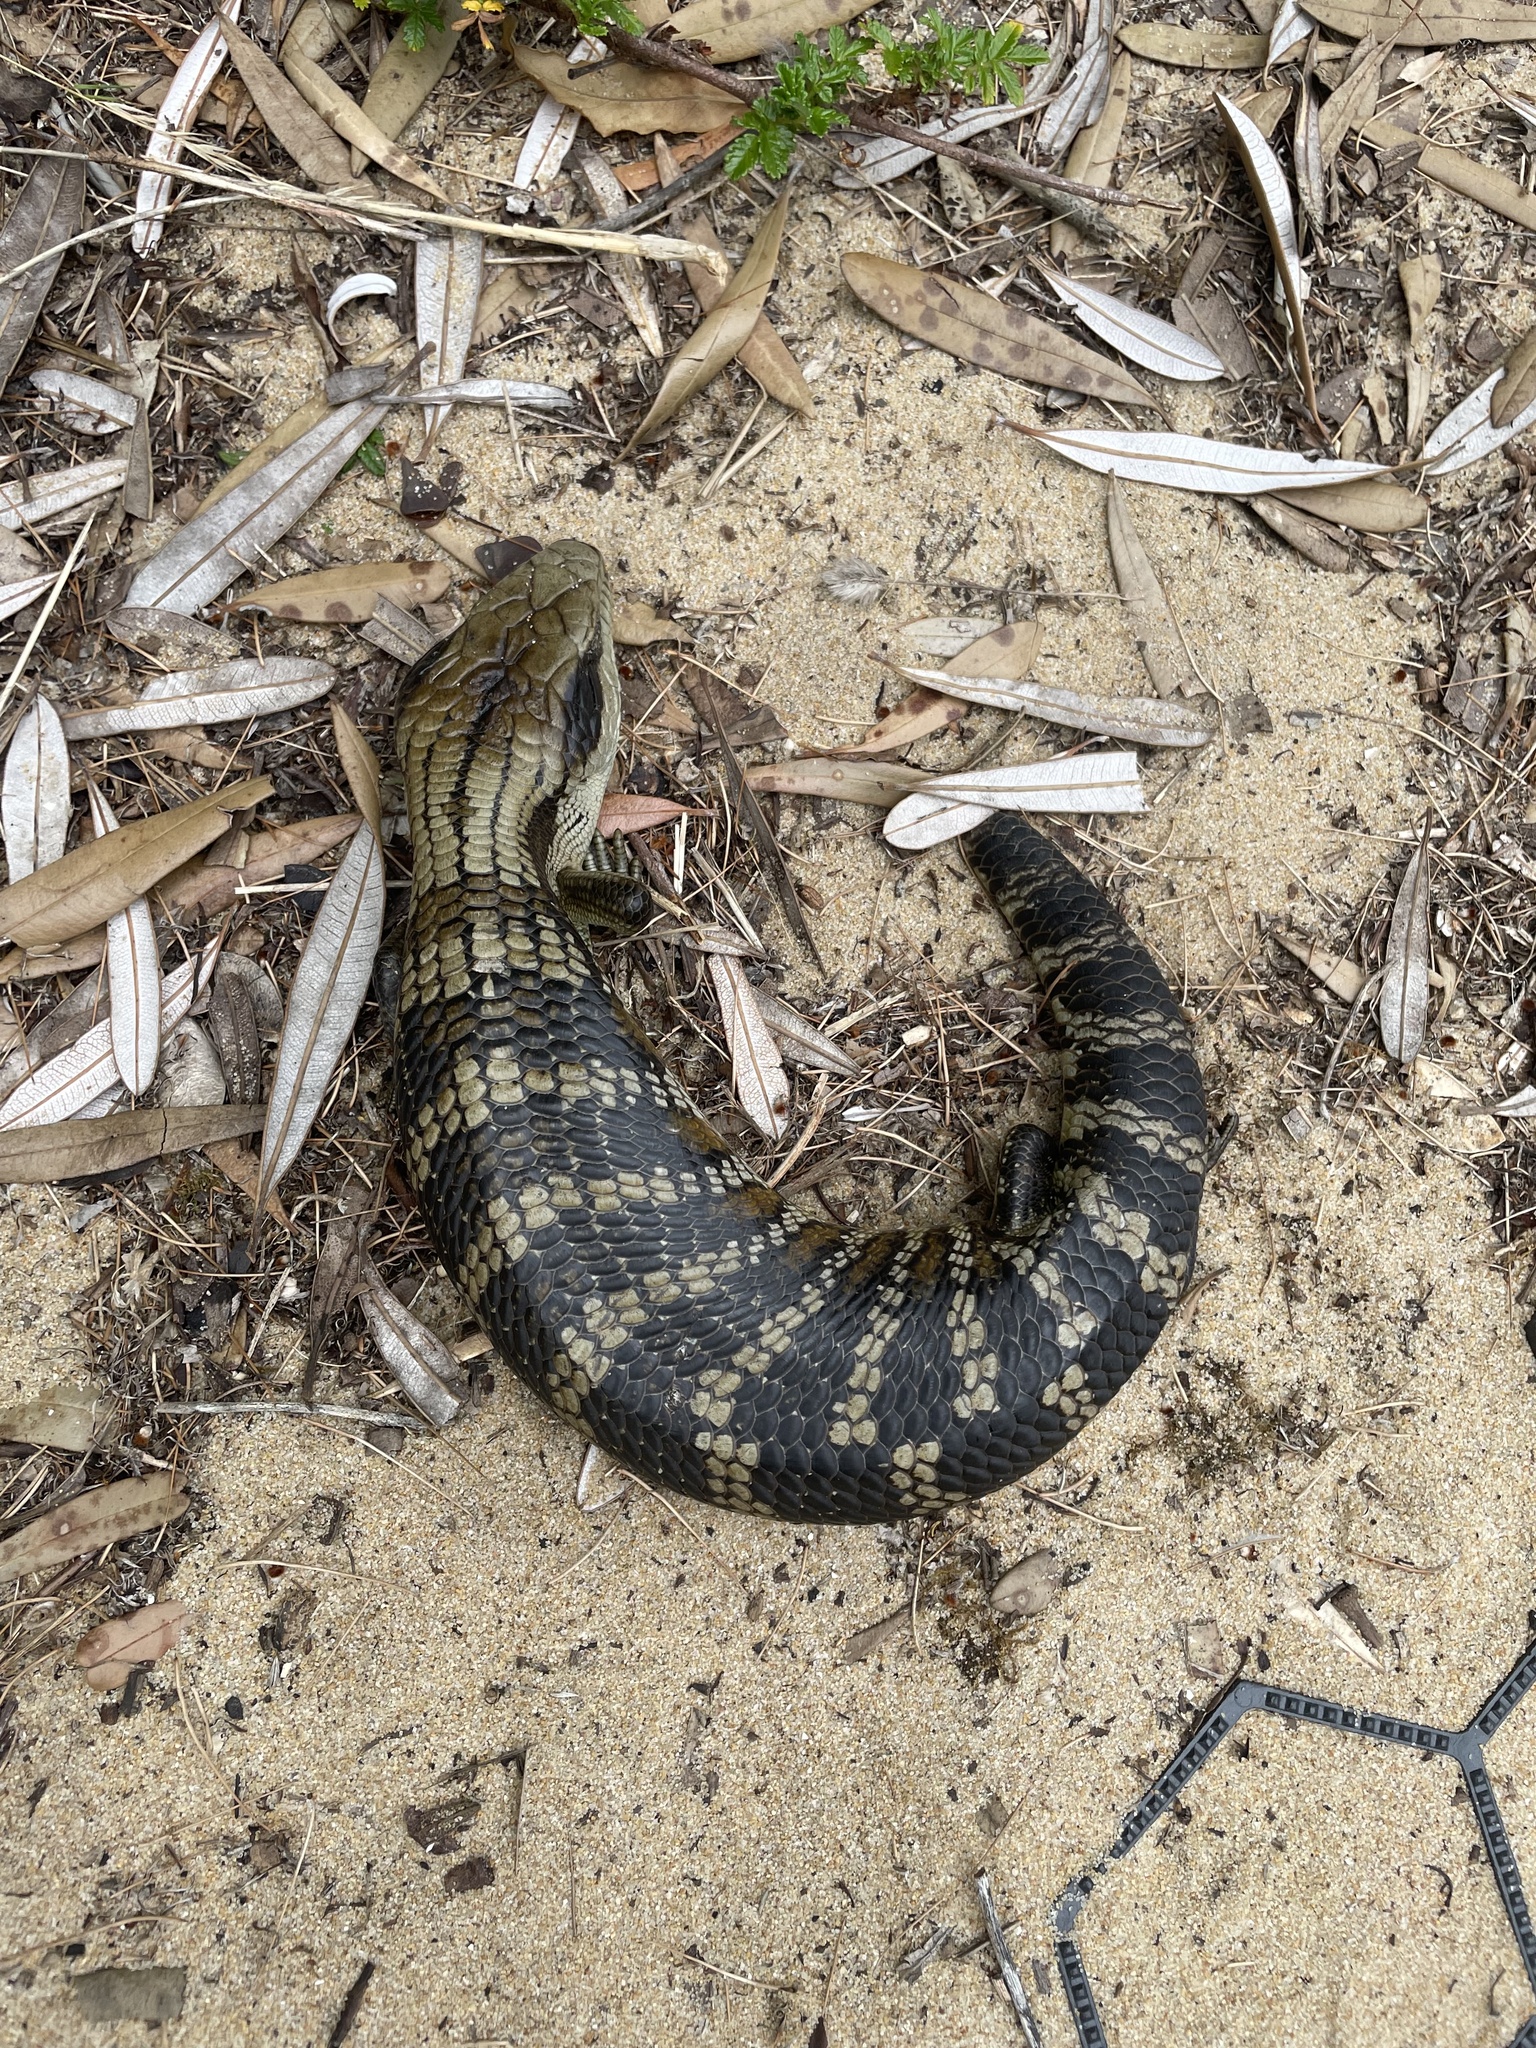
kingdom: Animalia
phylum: Chordata
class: Squamata
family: Scincidae
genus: Tiliqua
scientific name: Tiliqua scincoides
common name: Common bluetongue
